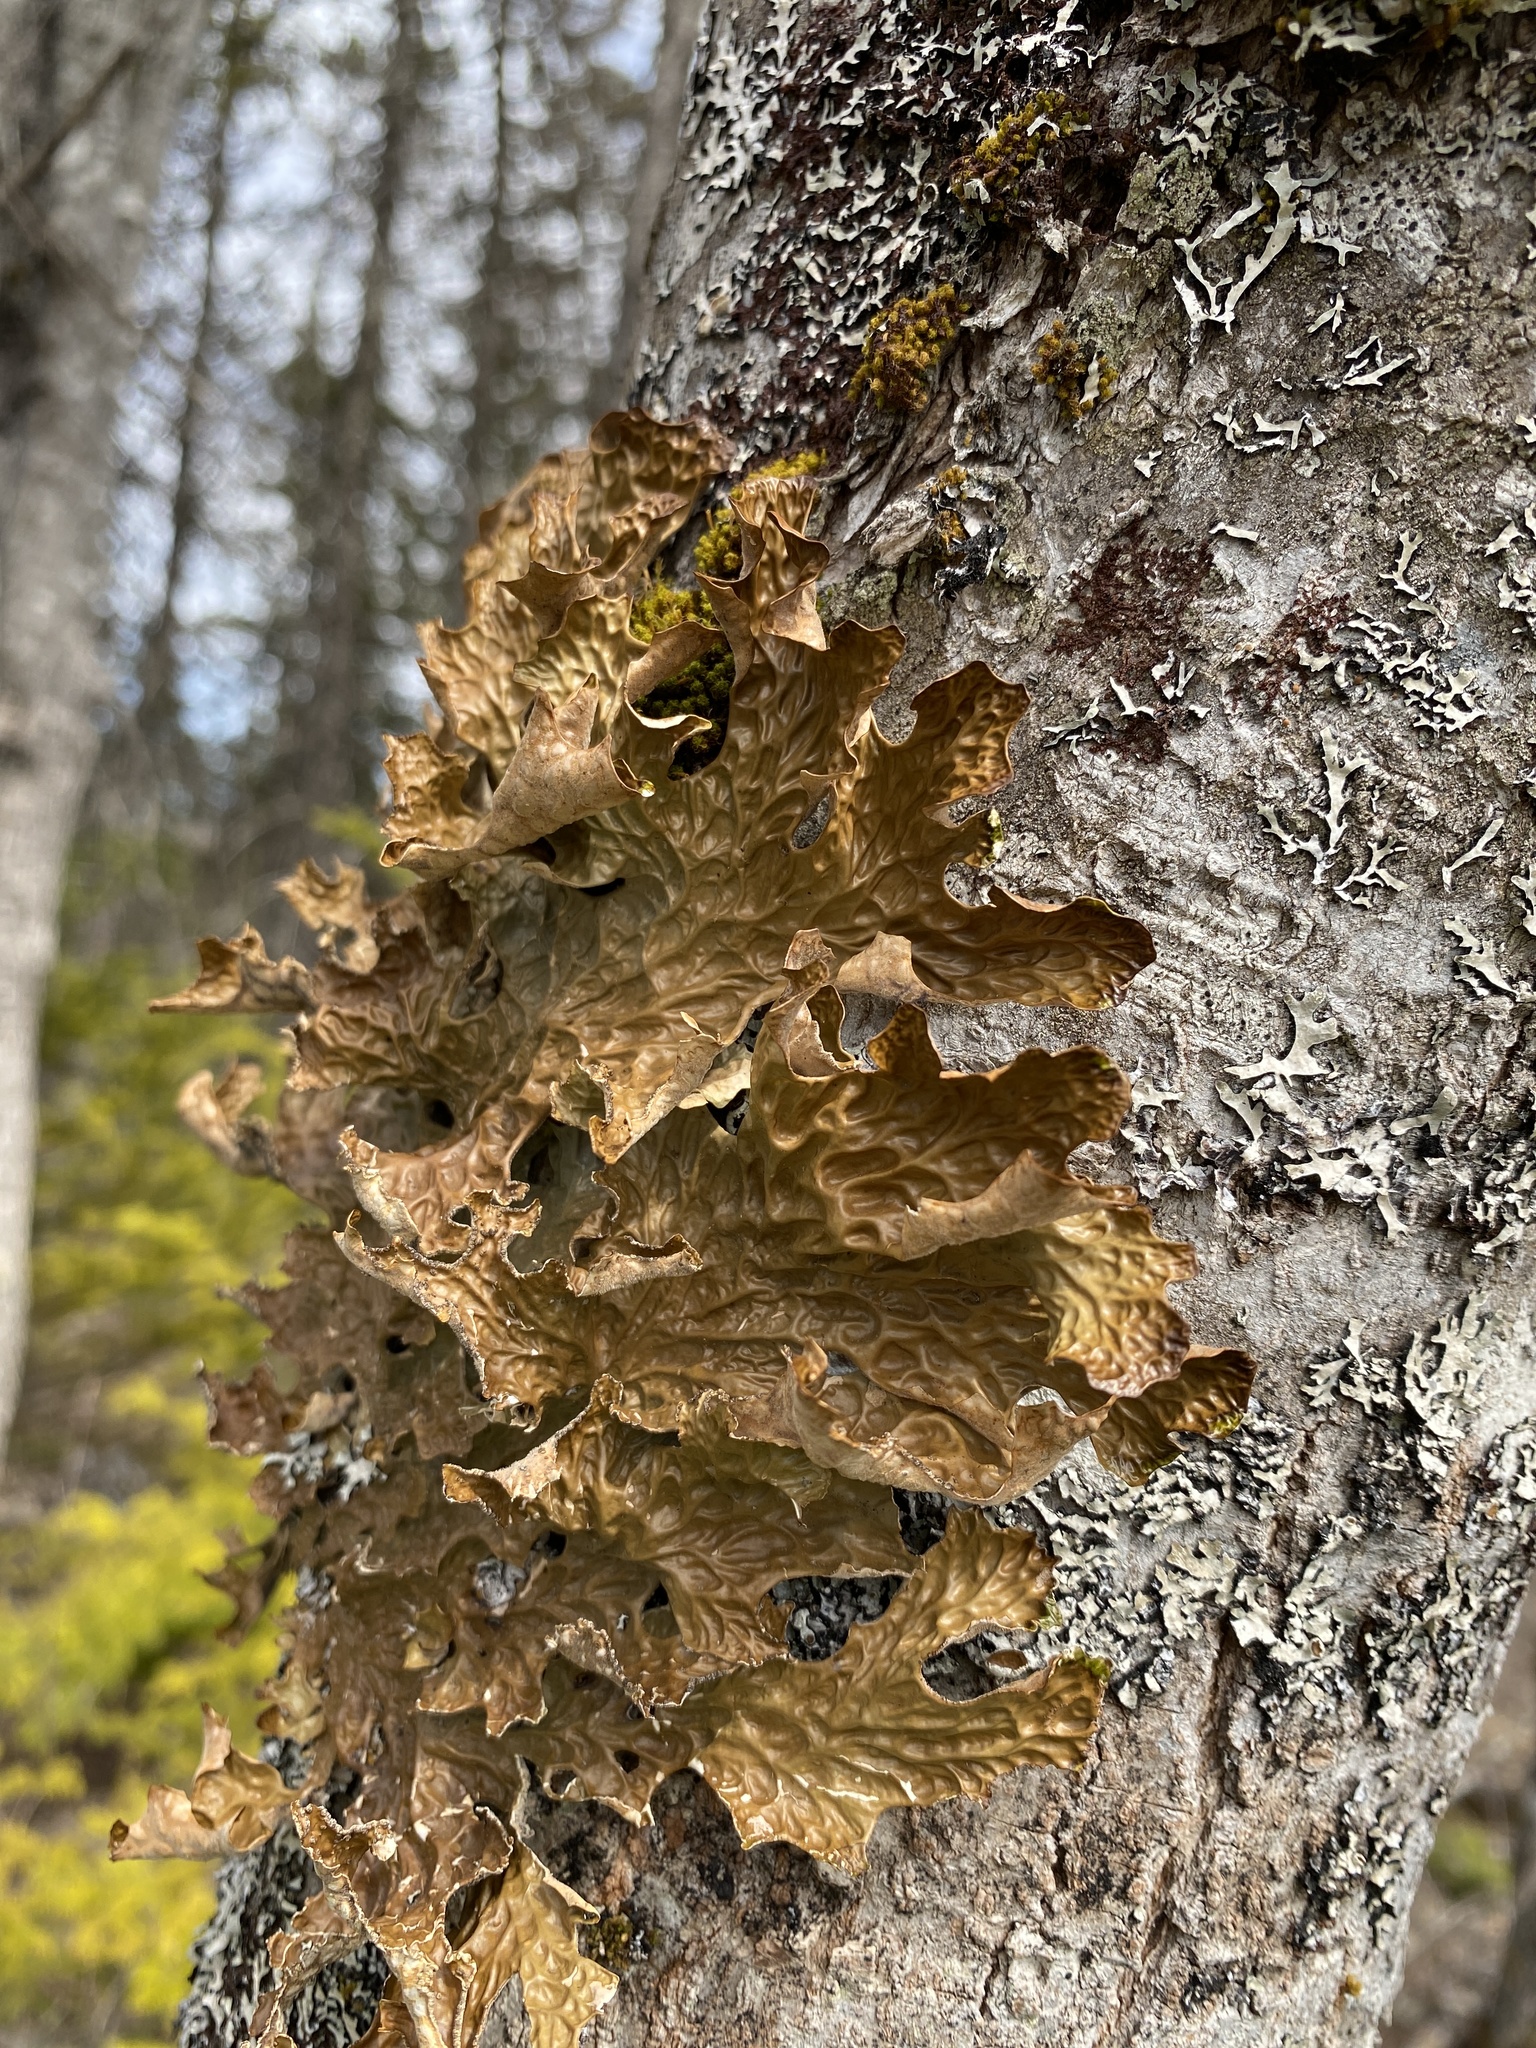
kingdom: Fungi
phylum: Ascomycota
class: Lecanoromycetes
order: Peltigerales
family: Lobariaceae
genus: Lobaria
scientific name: Lobaria pulmonaria
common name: Lungwort
